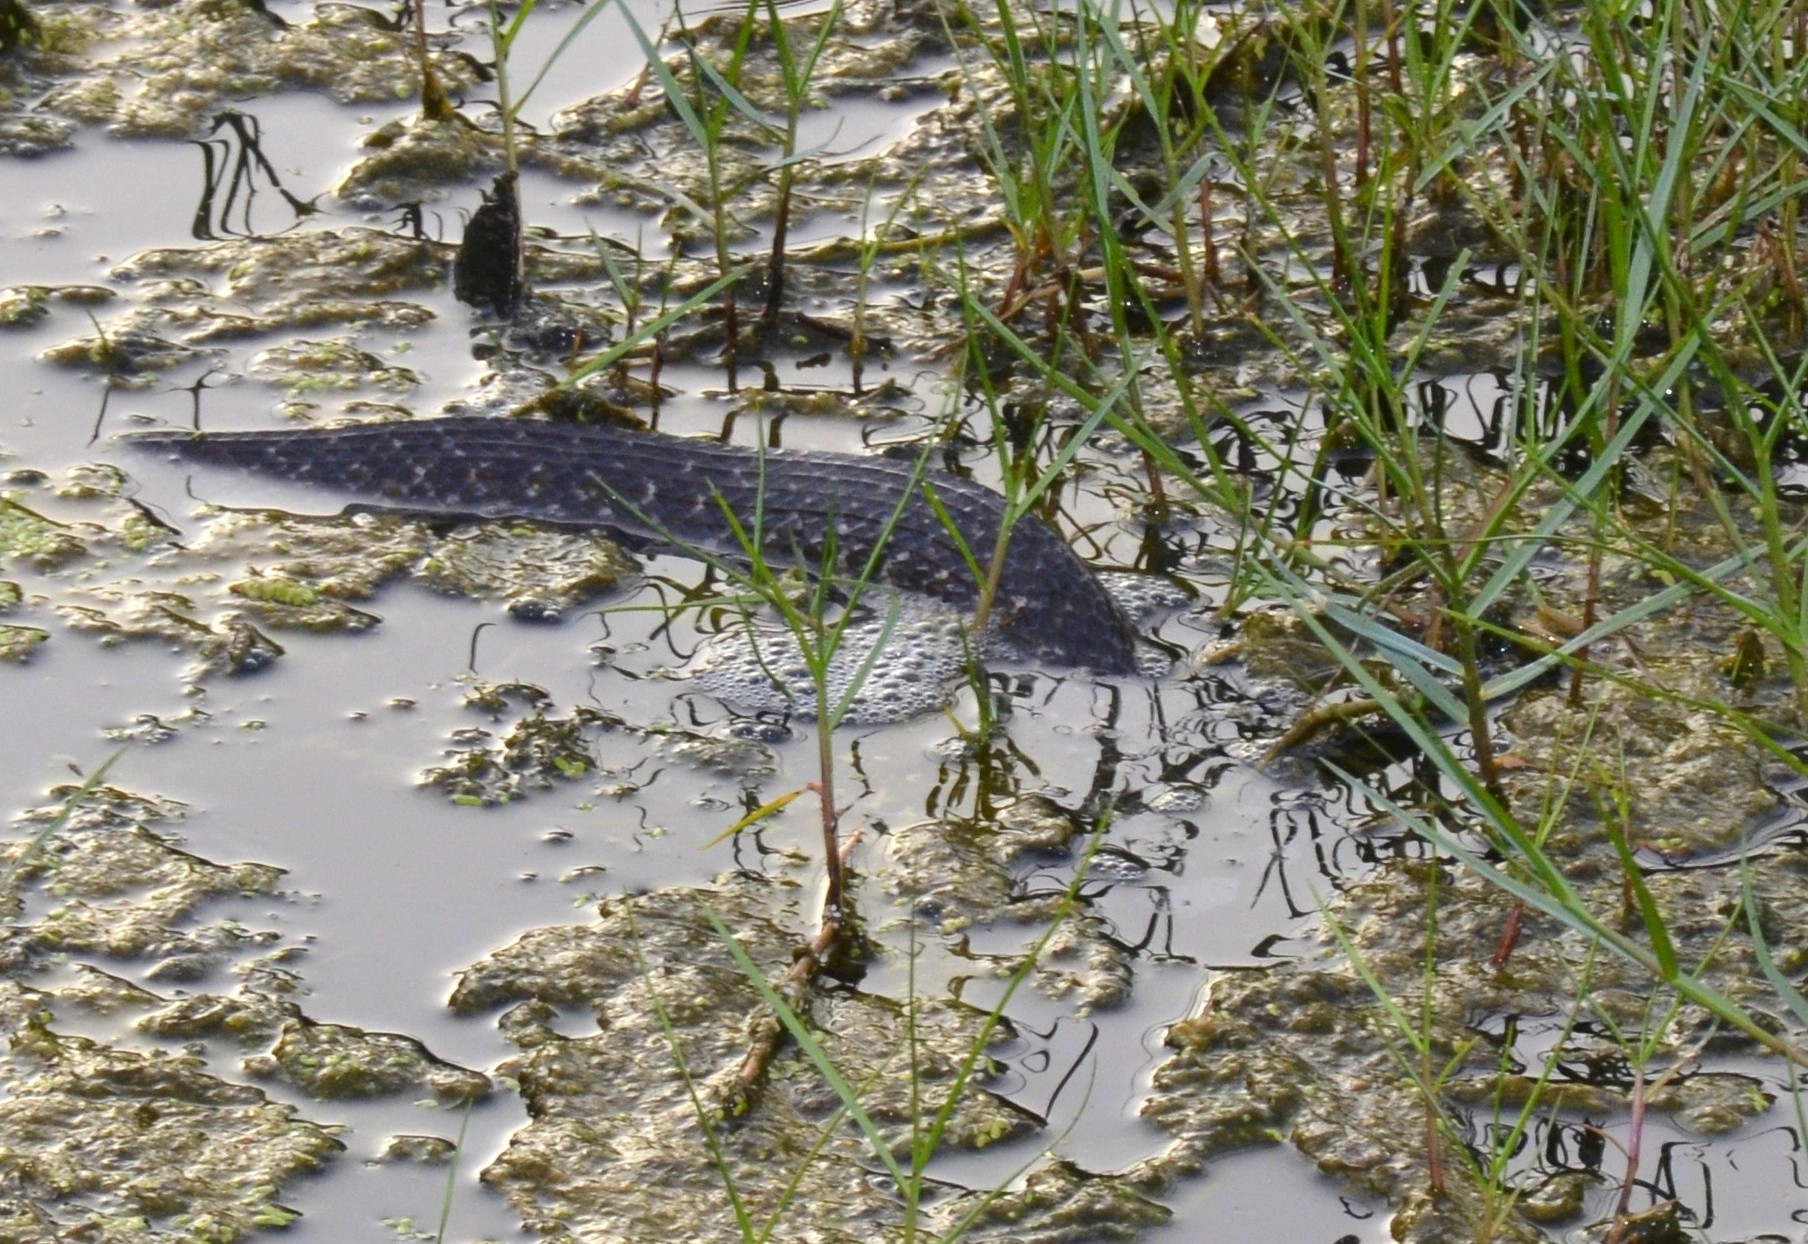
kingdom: Animalia
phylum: Chordata
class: Squamata
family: Colubridae
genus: Fowlea
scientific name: Fowlea piscator
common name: Asiatic water snake
